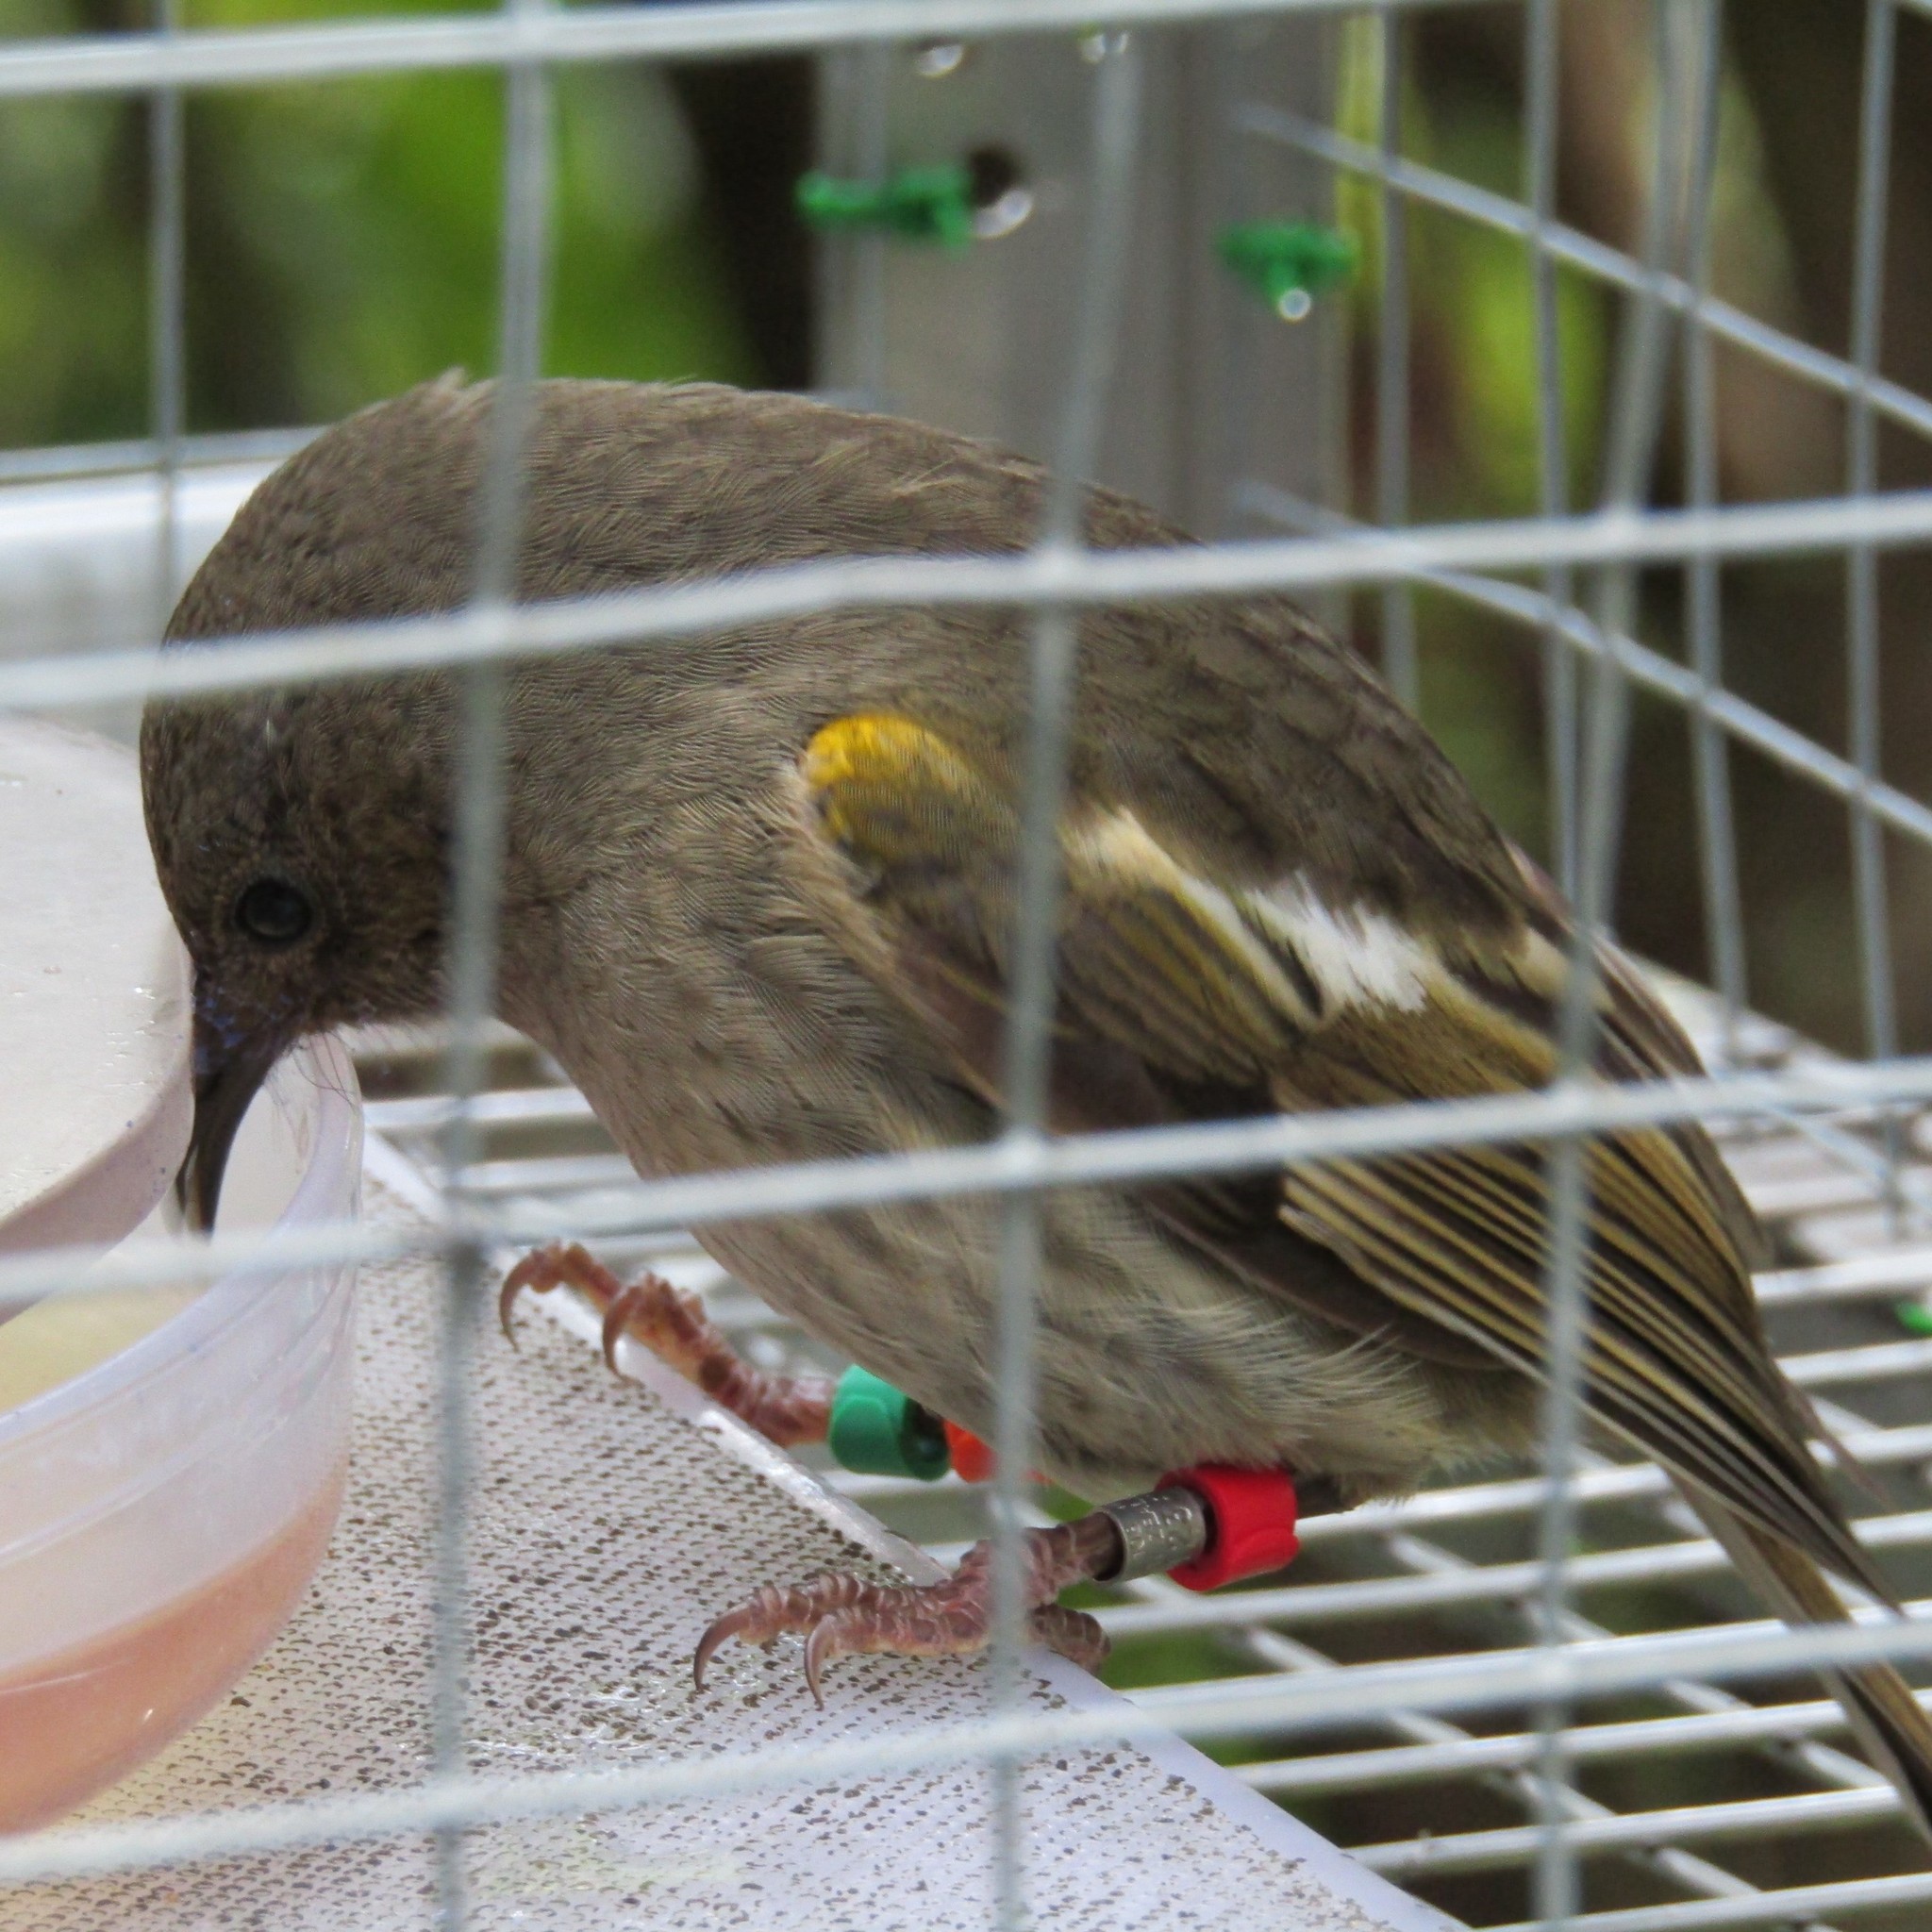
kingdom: Animalia
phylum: Chordata
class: Aves
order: Passeriformes
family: Notiomystidae
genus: Notiomystis
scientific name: Notiomystis cincta
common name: Stitchbird
